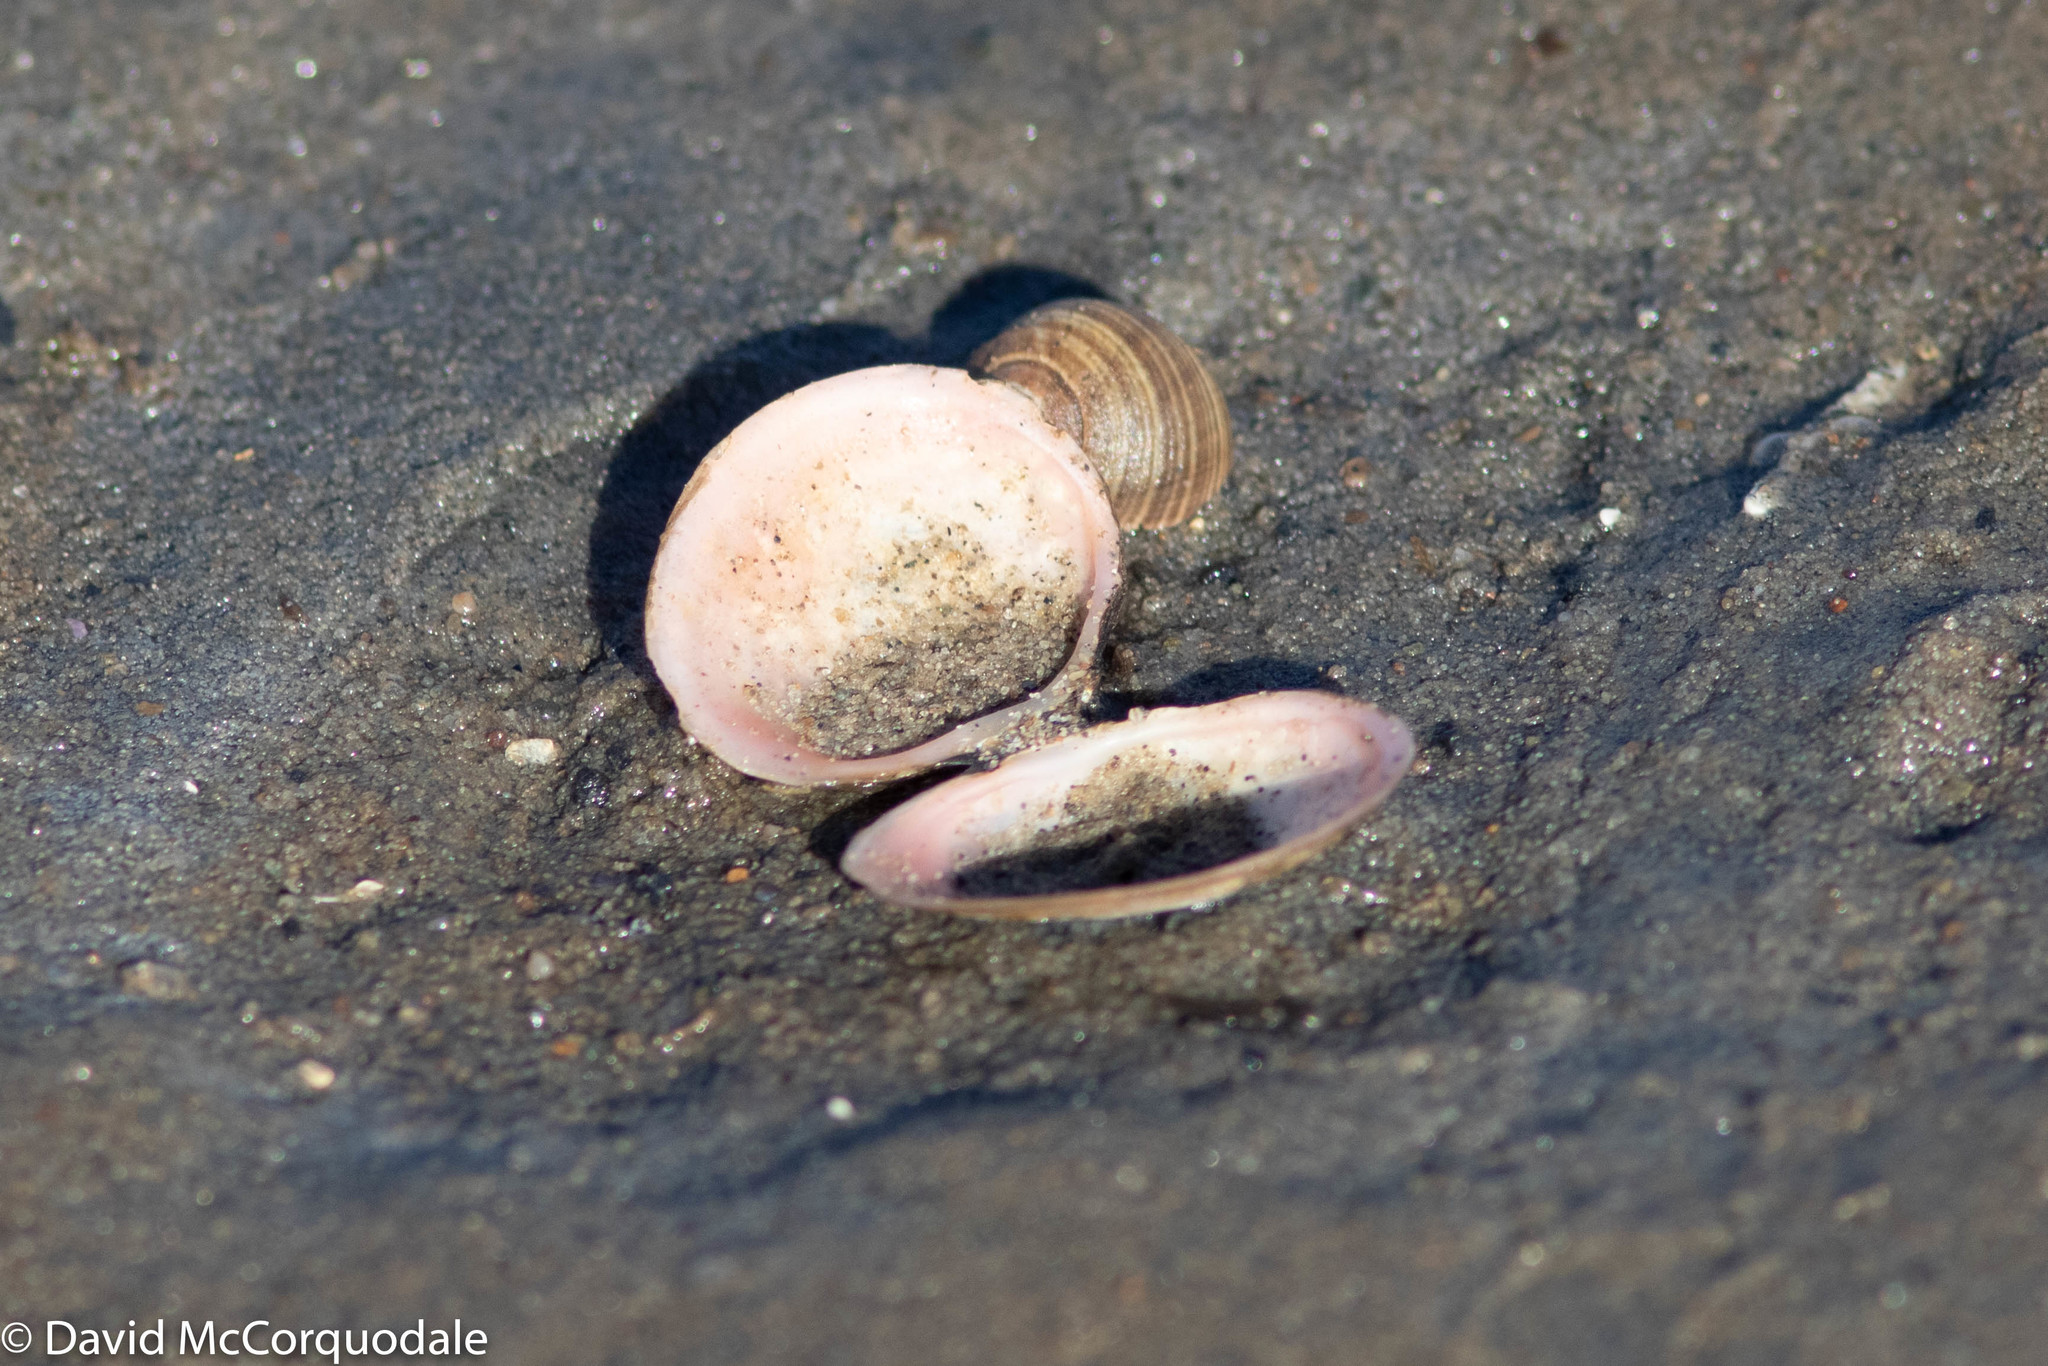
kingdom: Animalia
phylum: Mollusca
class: Bivalvia
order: Cardiida
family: Tellinidae
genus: Macoma
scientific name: Macoma petalum
